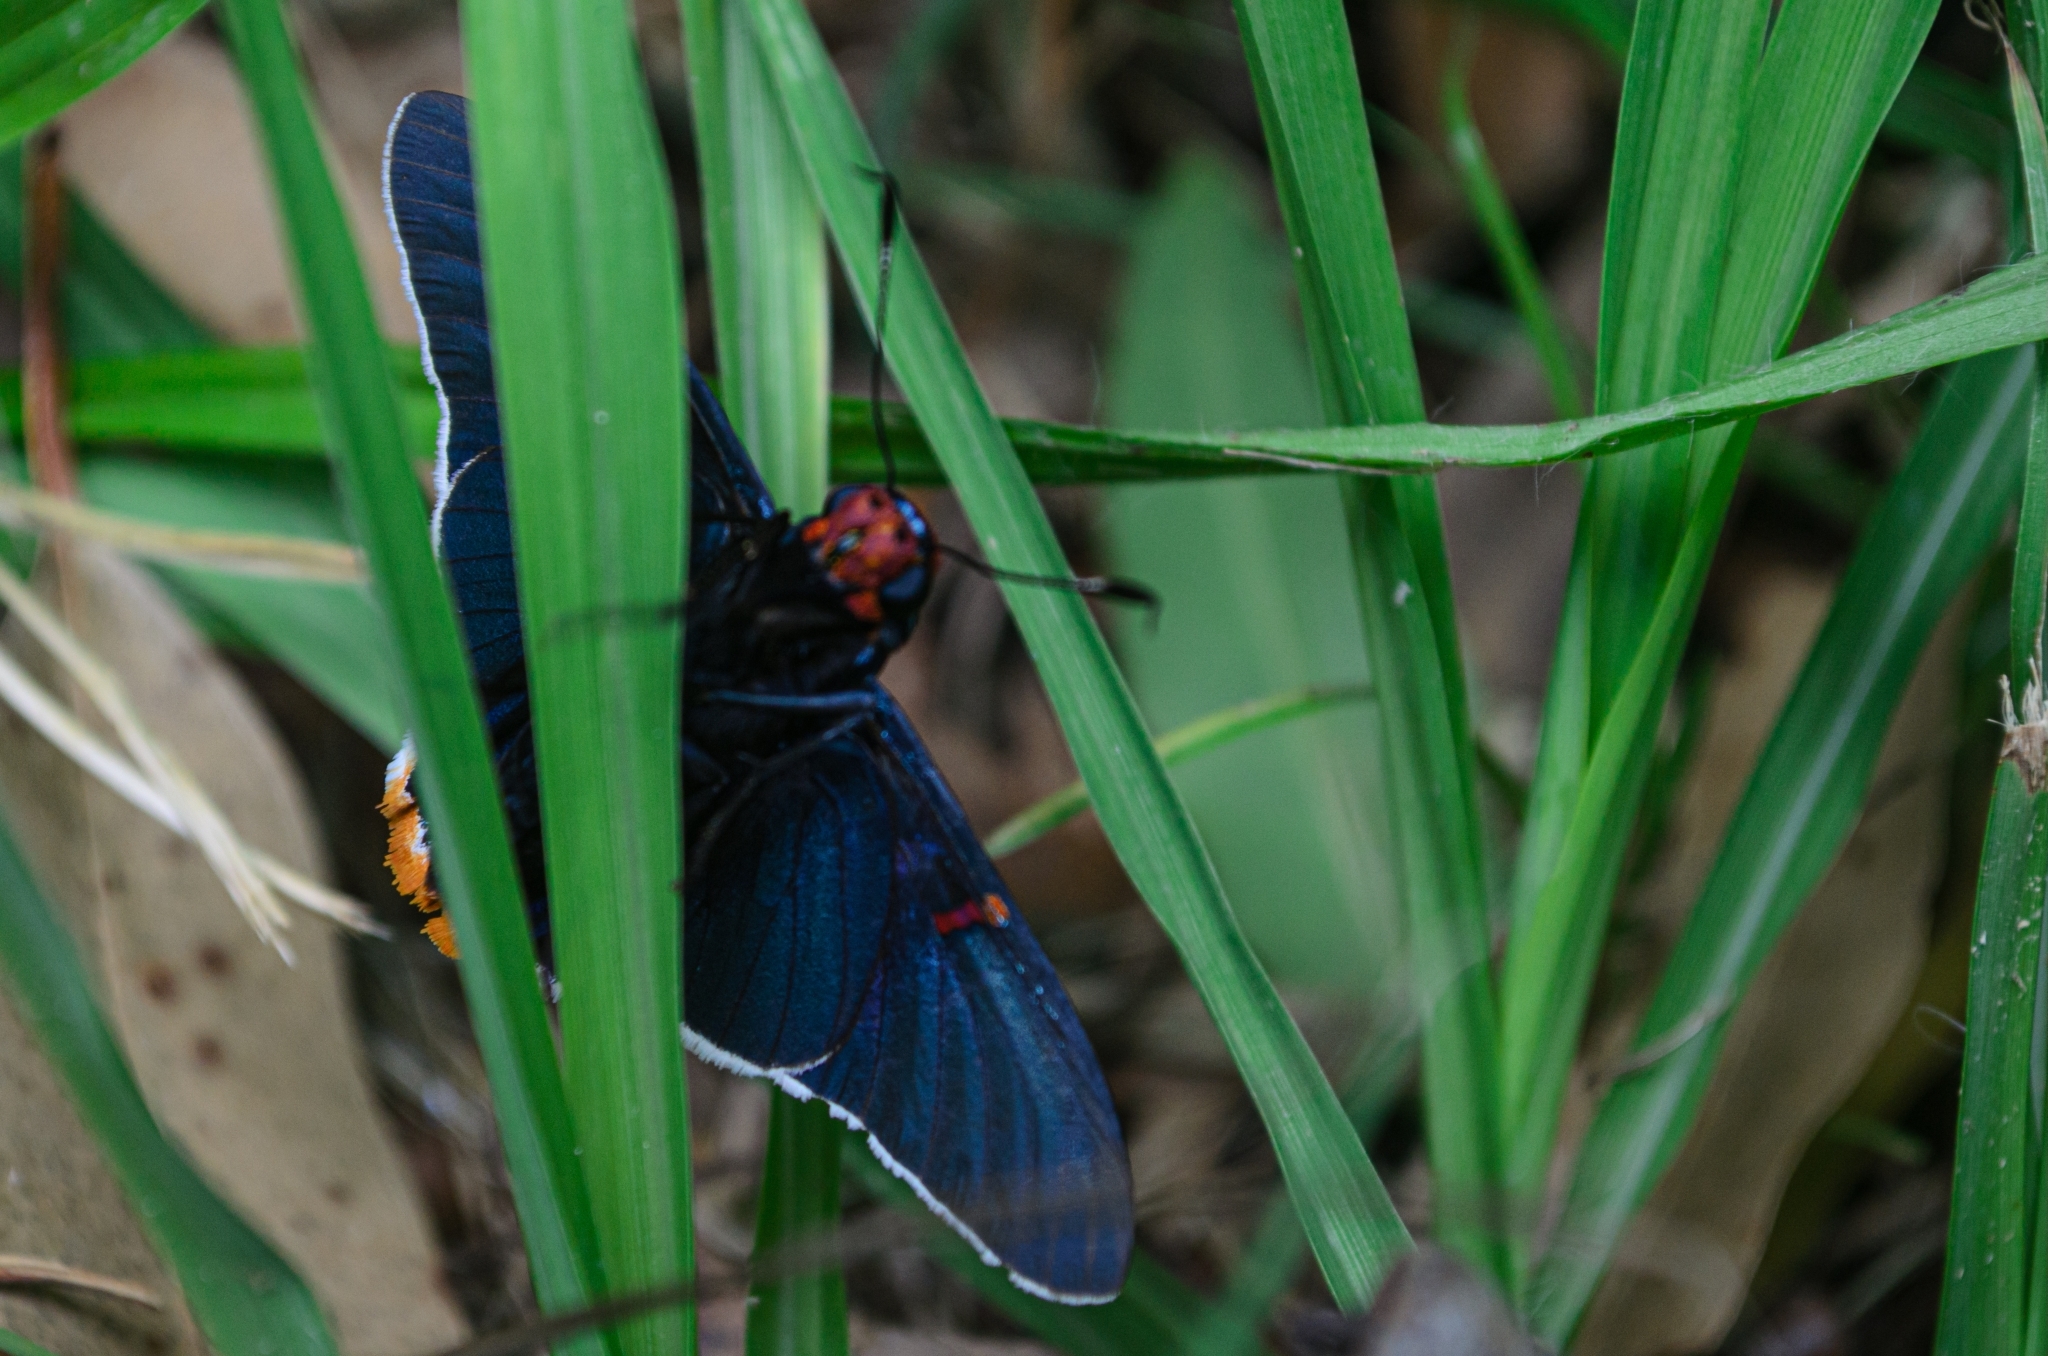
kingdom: Animalia
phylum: Arthropoda
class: Insecta
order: Lepidoptera
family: Hesperiidae
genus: Phocides
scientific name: Phocides polybius
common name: Guava skipper
